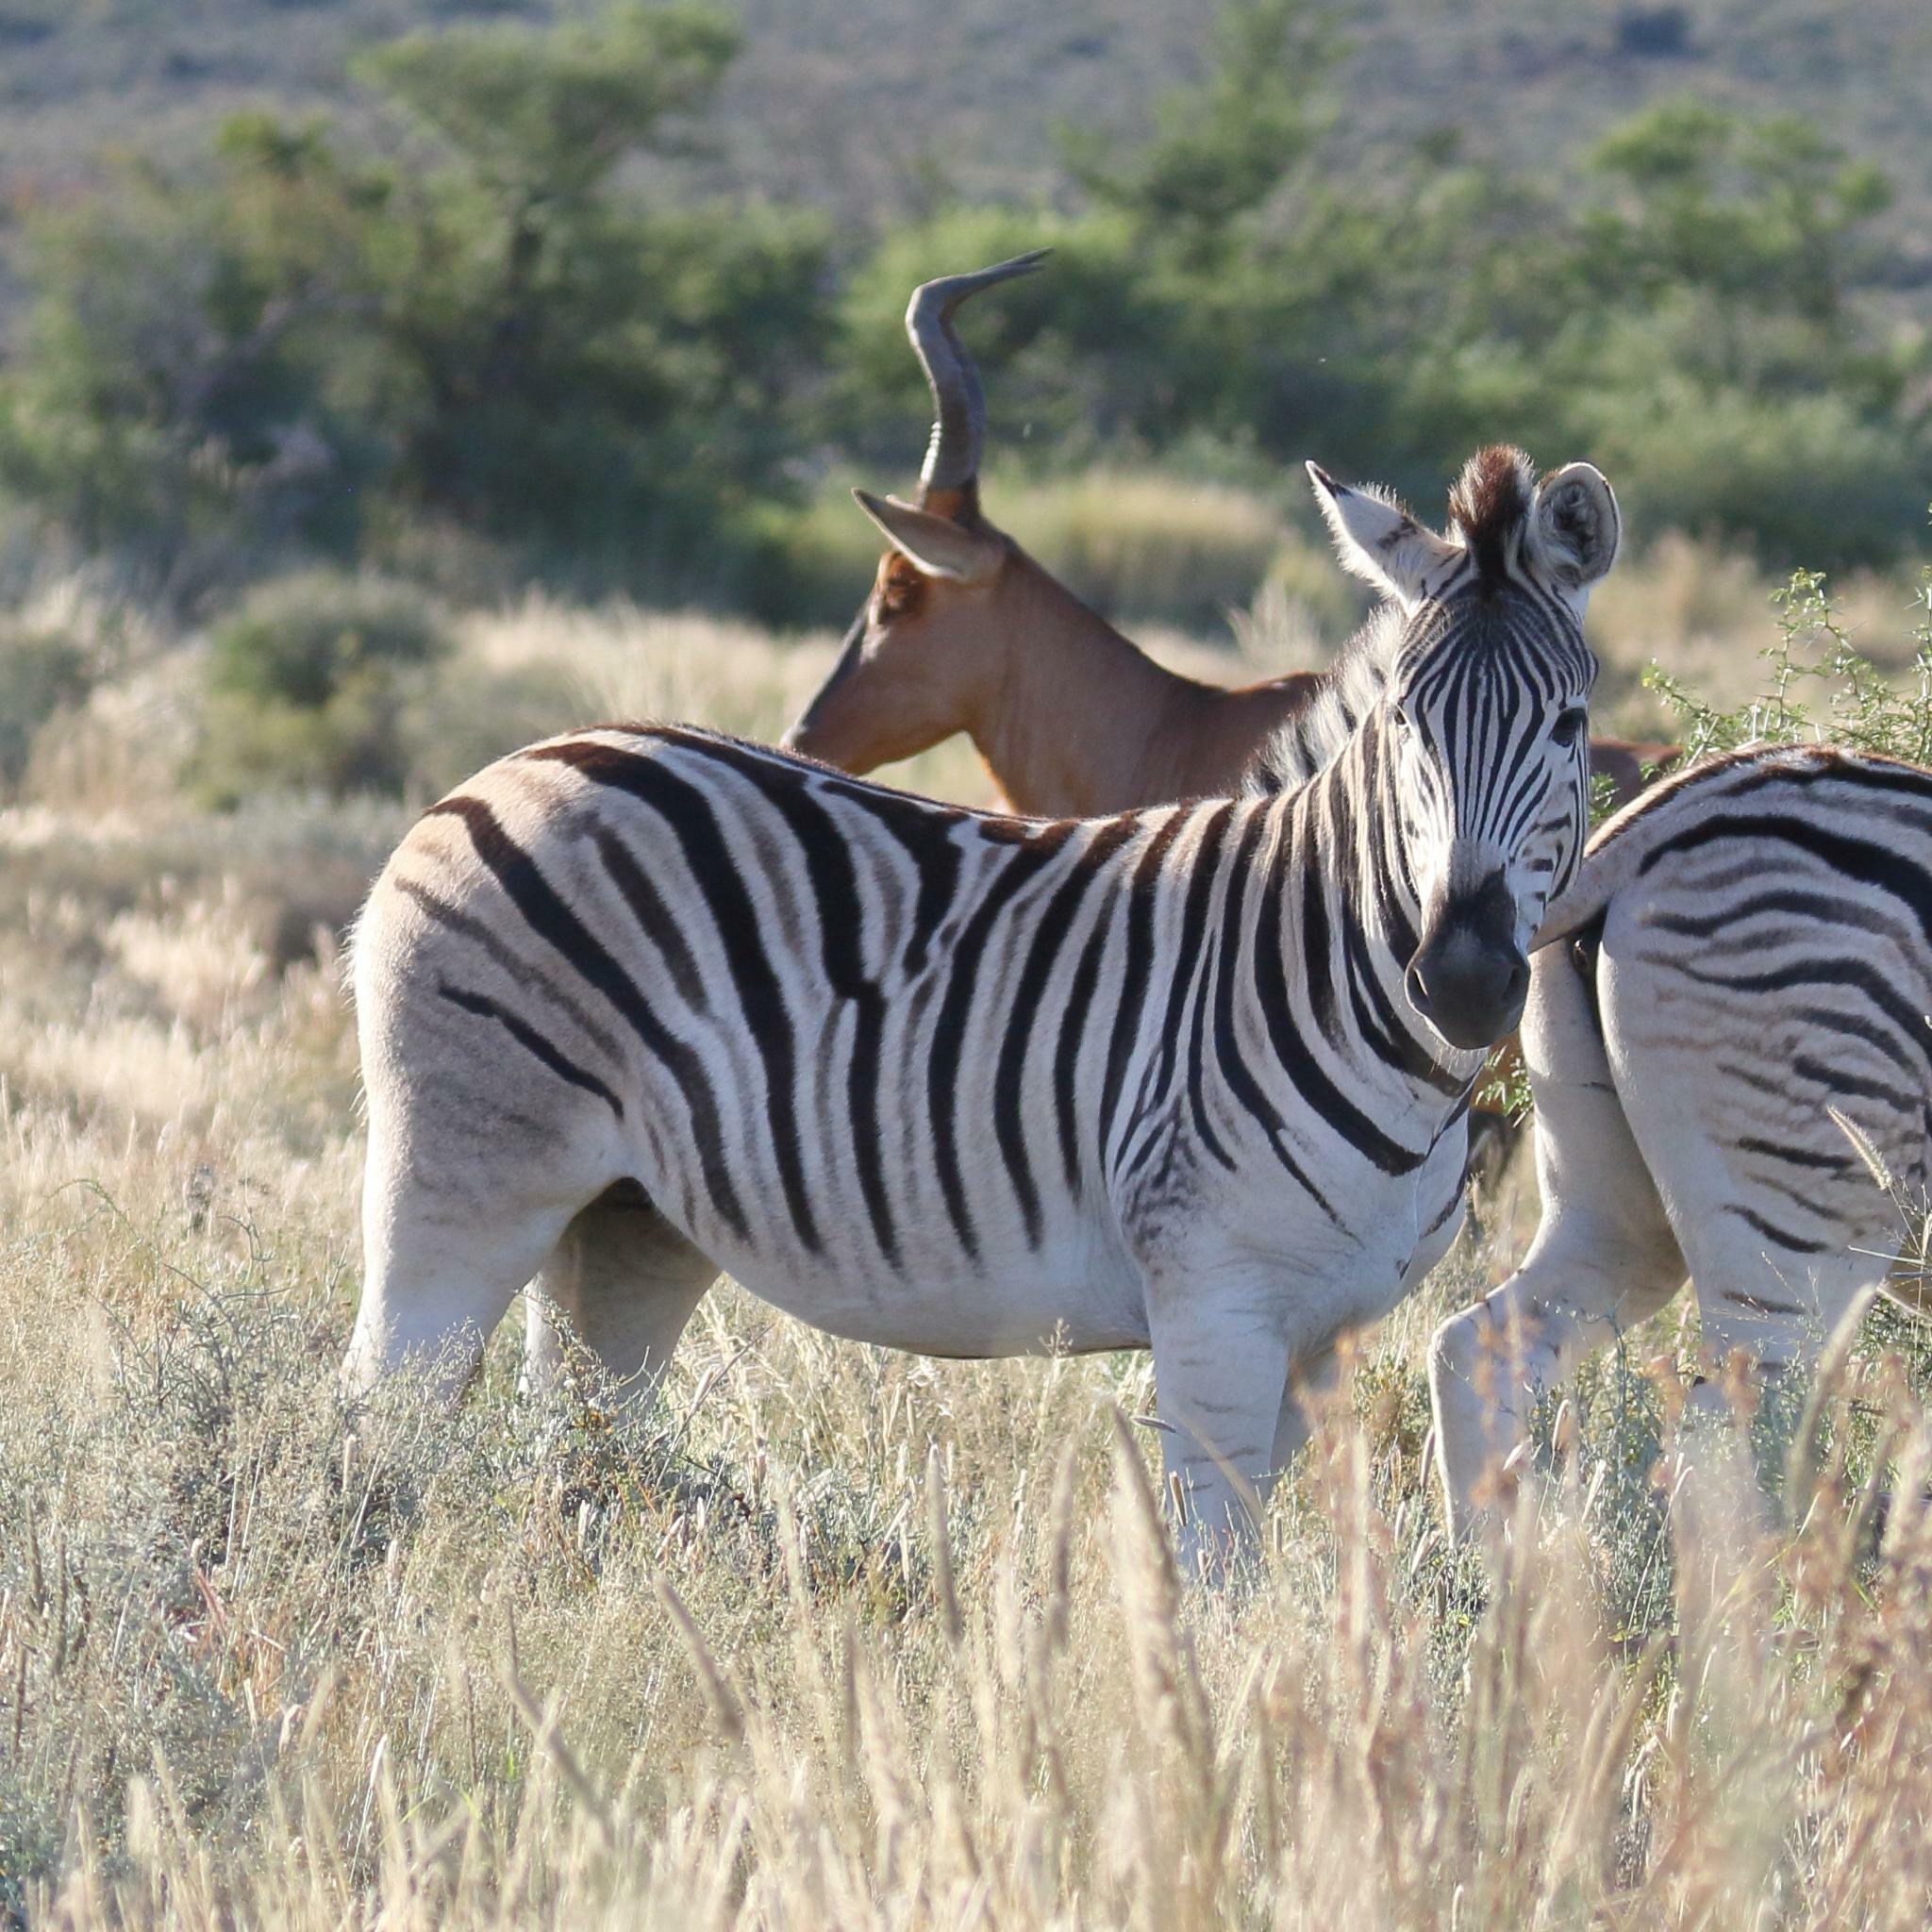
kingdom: Animalia
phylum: Chordata
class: Mammalia
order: Perissodactyla
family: Equidae
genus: Equus
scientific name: Equus quagga
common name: Plains zebra
